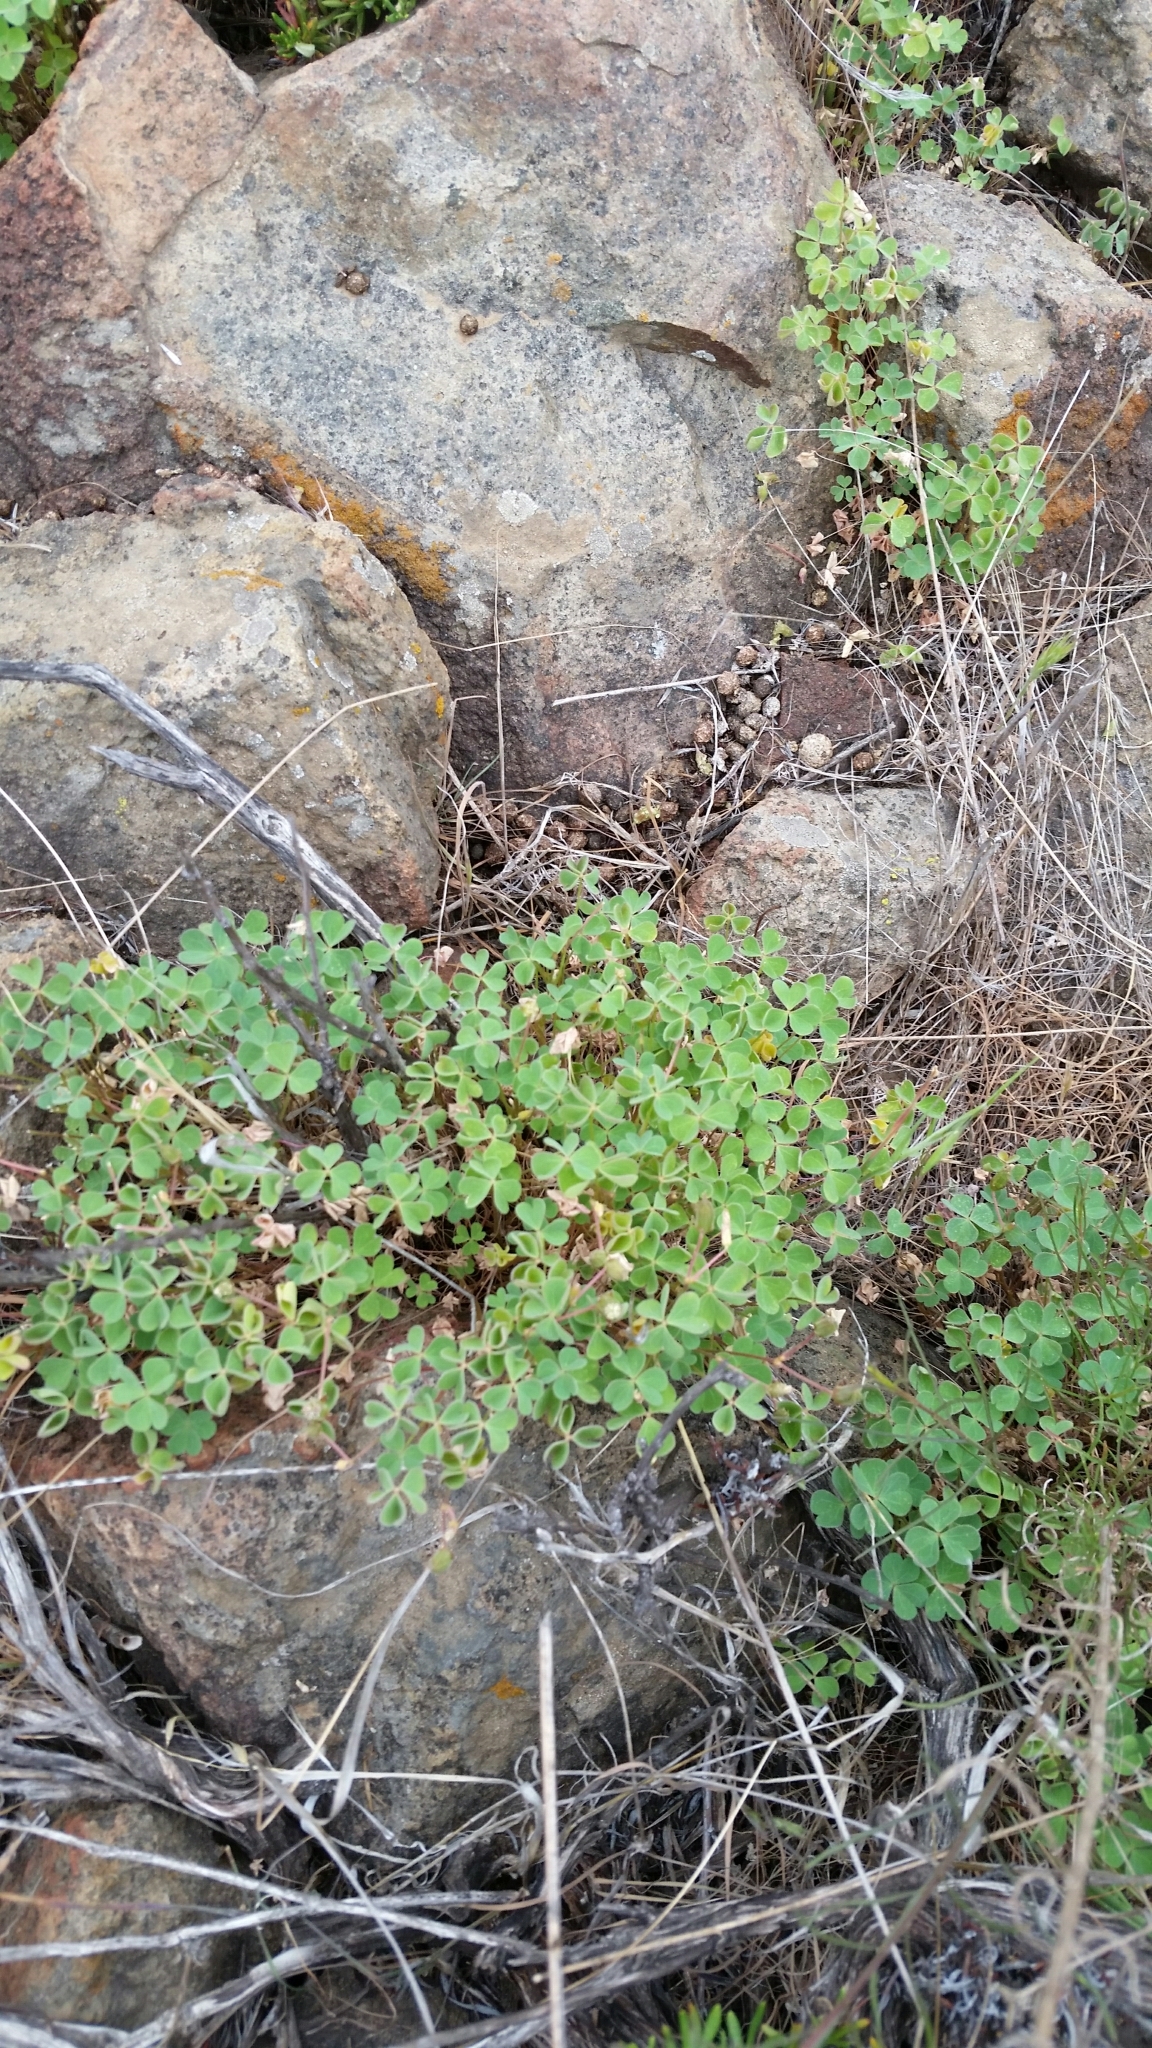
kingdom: Plantae
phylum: Tracheophyta
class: Magnoliopsida
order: Oxalidales
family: Oxalidaceae
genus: Oxalis
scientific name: Oxalis californica
